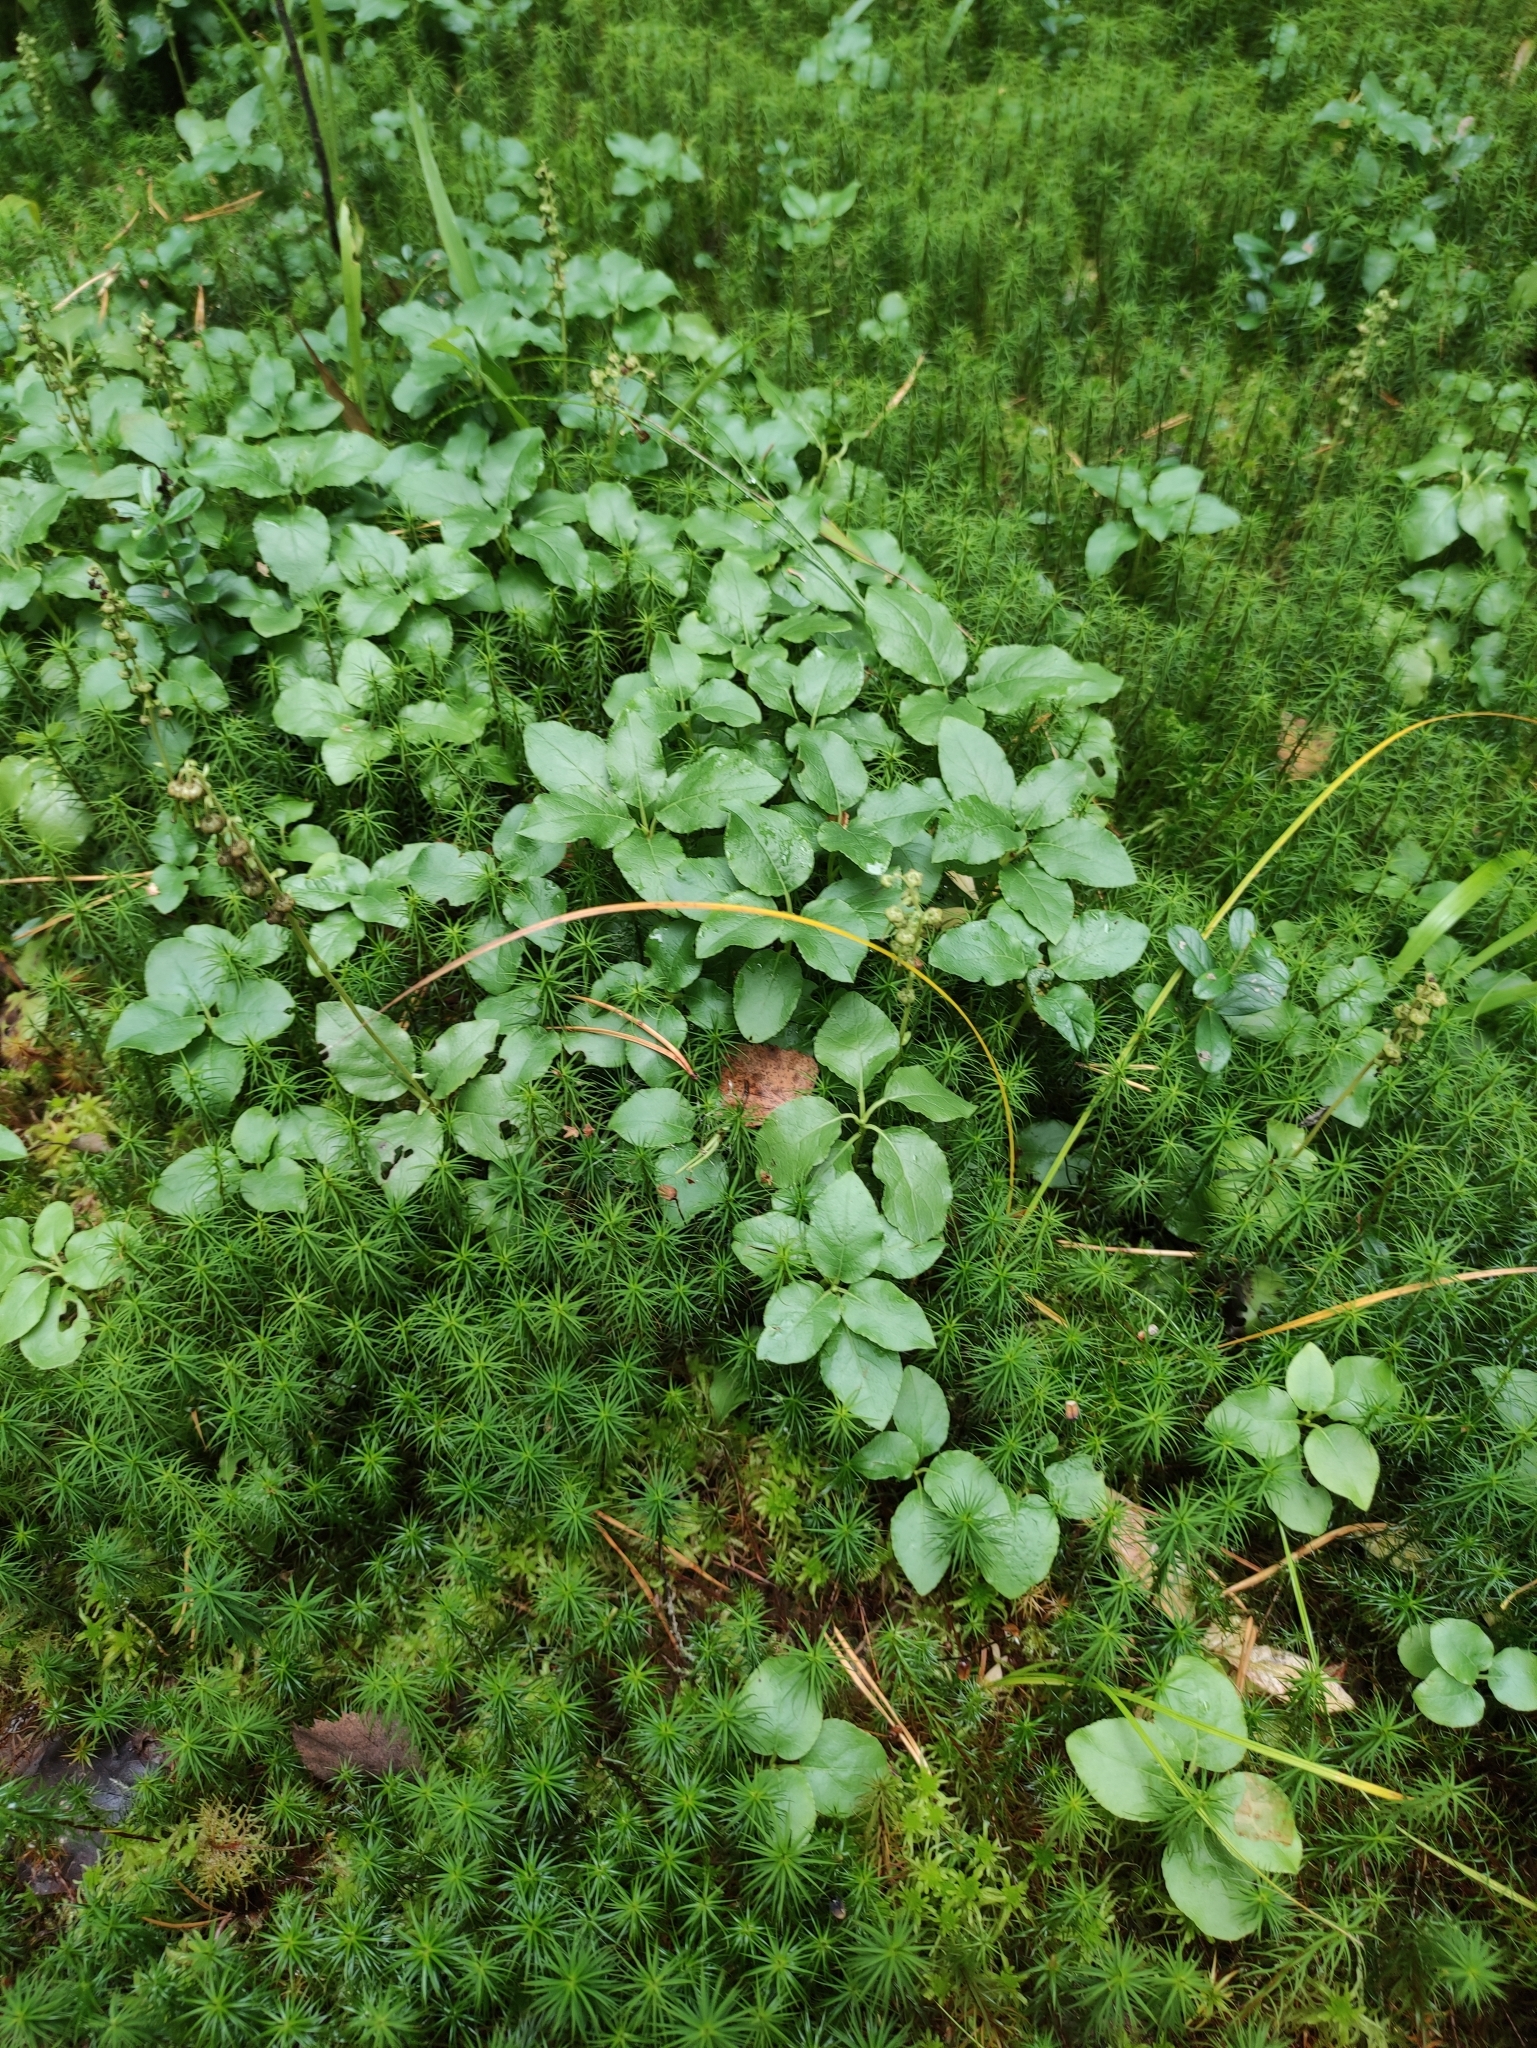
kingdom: Plantae
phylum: Tracheophyta
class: Magnoliopsida
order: Ericales
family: Ericaceae
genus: Orthilia
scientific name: Orthilia secunda
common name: One-sided orthilia
